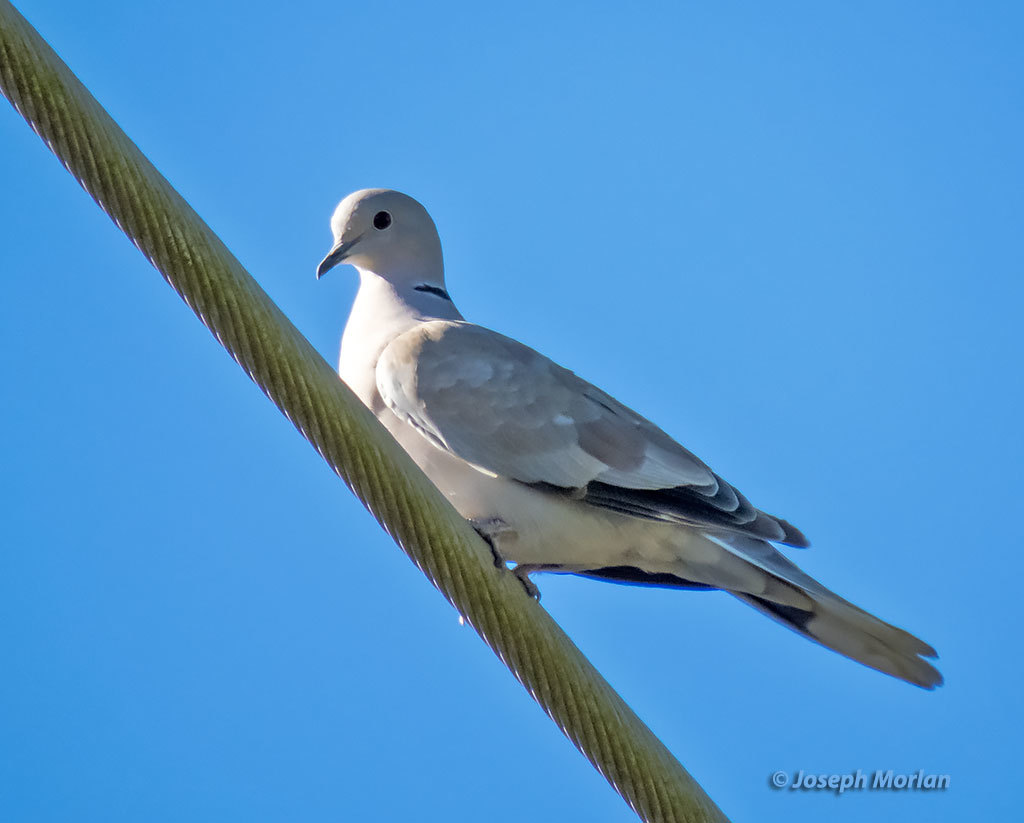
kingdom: Animalia
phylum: Chordata
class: Aves
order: Columbiformes
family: Columbidae
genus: Streptopelia
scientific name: Streptopelia decaocto
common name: Eurasian collared dove
